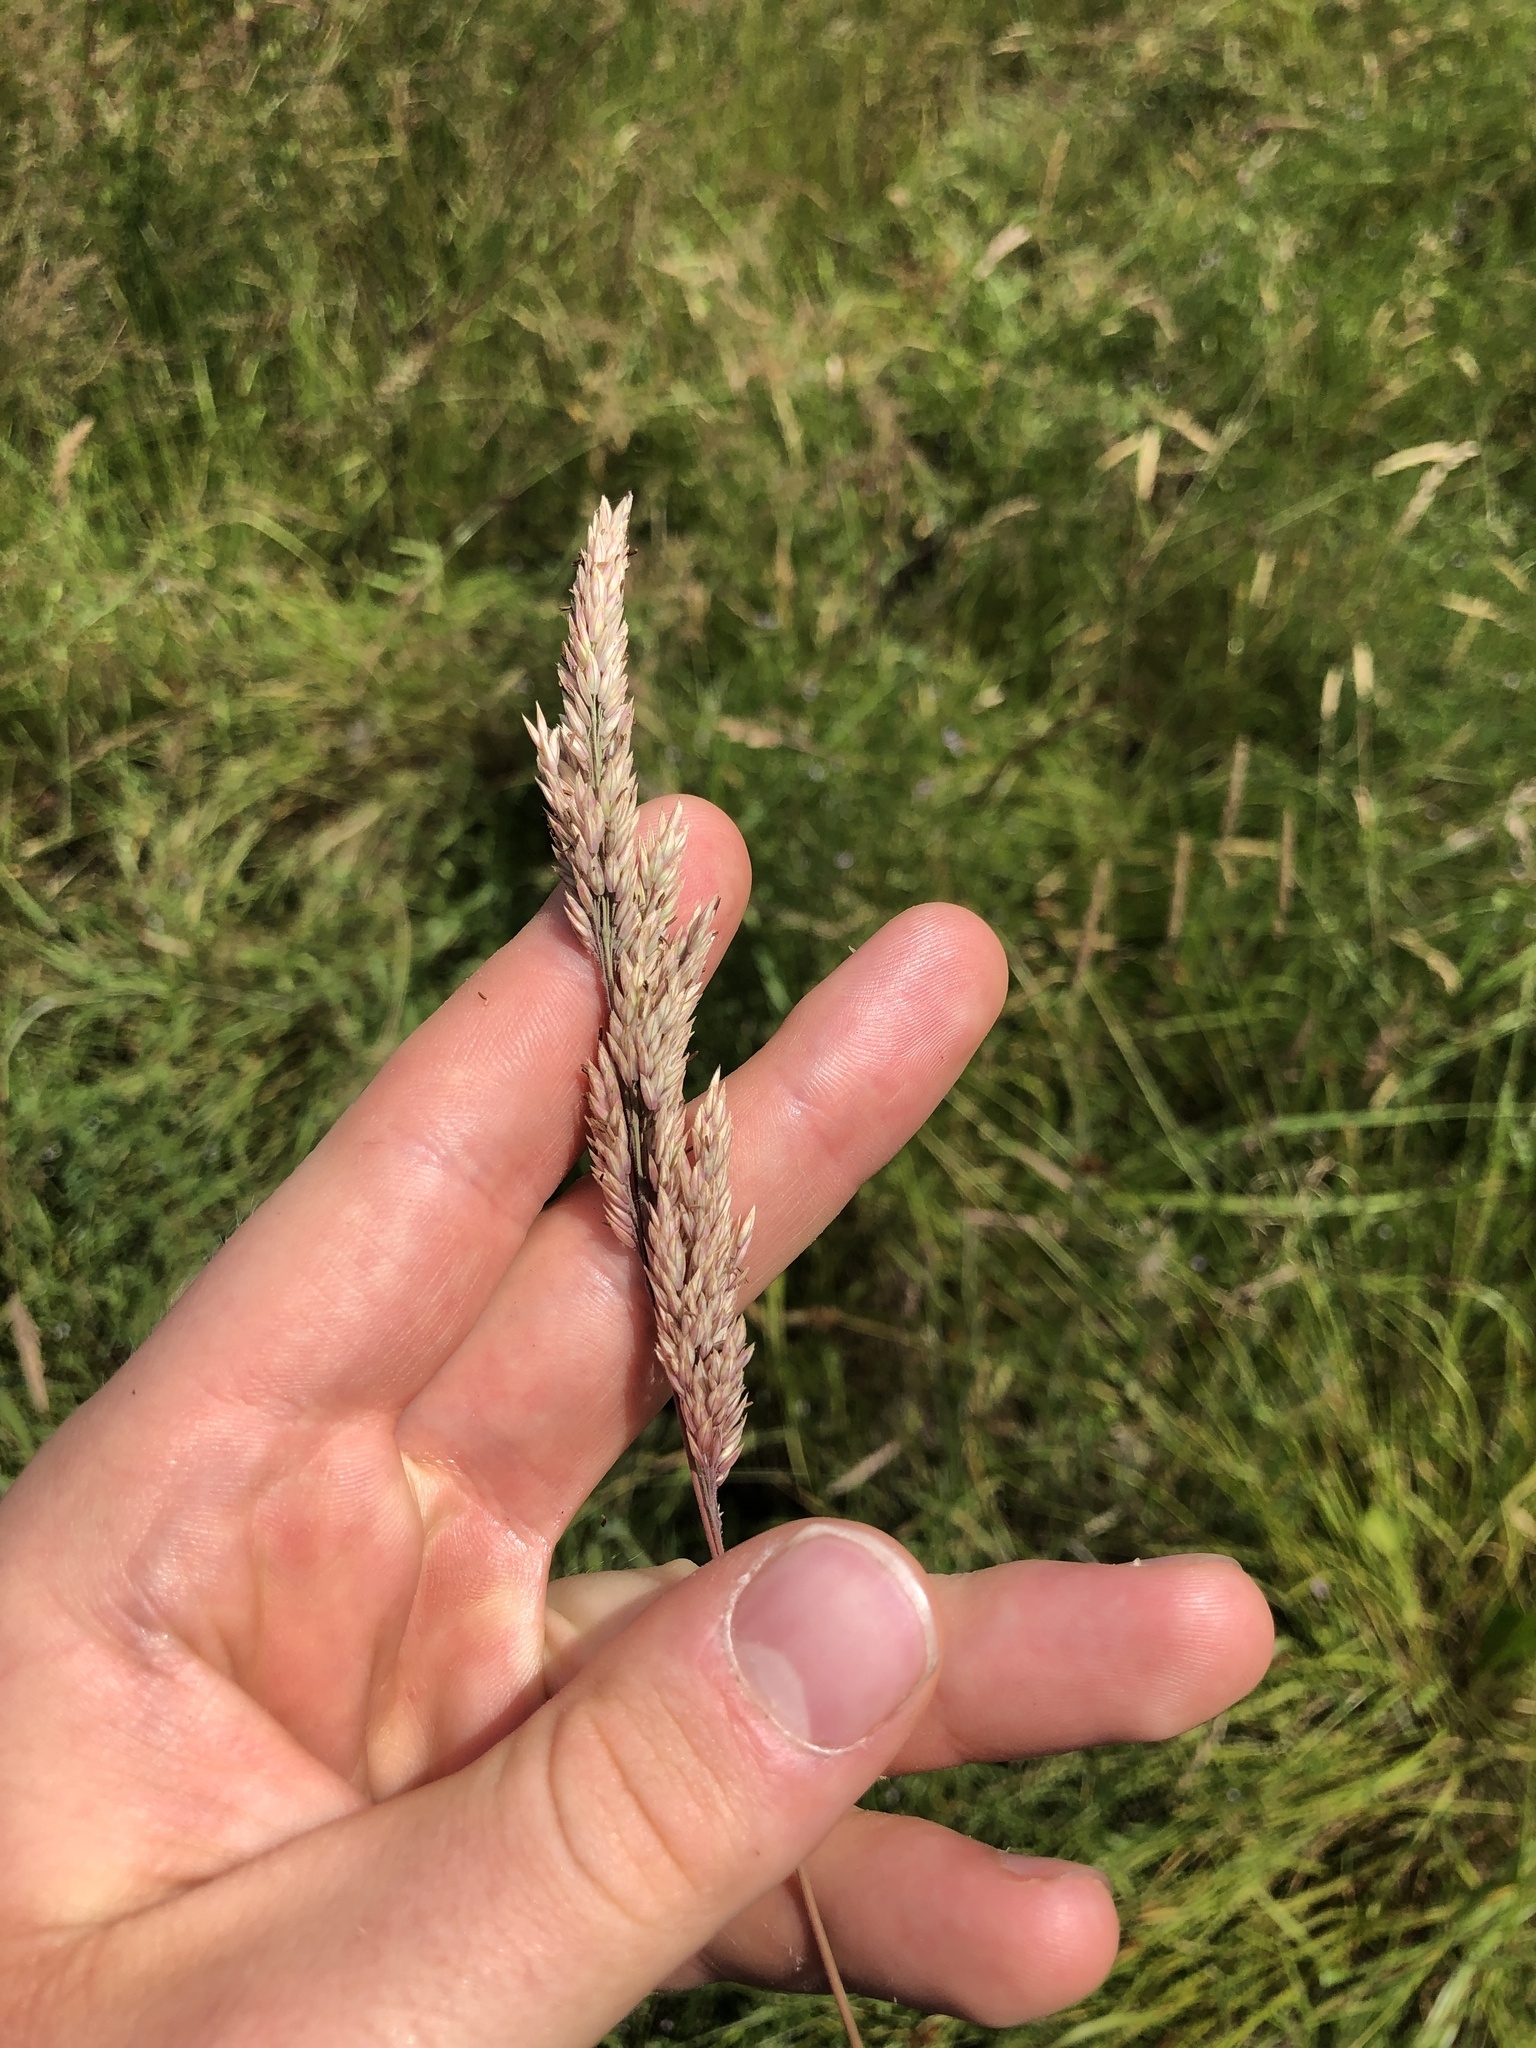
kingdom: Plantae
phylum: Tracheophyta
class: Liliopsida
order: Poales
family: Poaceae
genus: Holcus
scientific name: Holcus lanatus
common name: Yorkshire-fog
